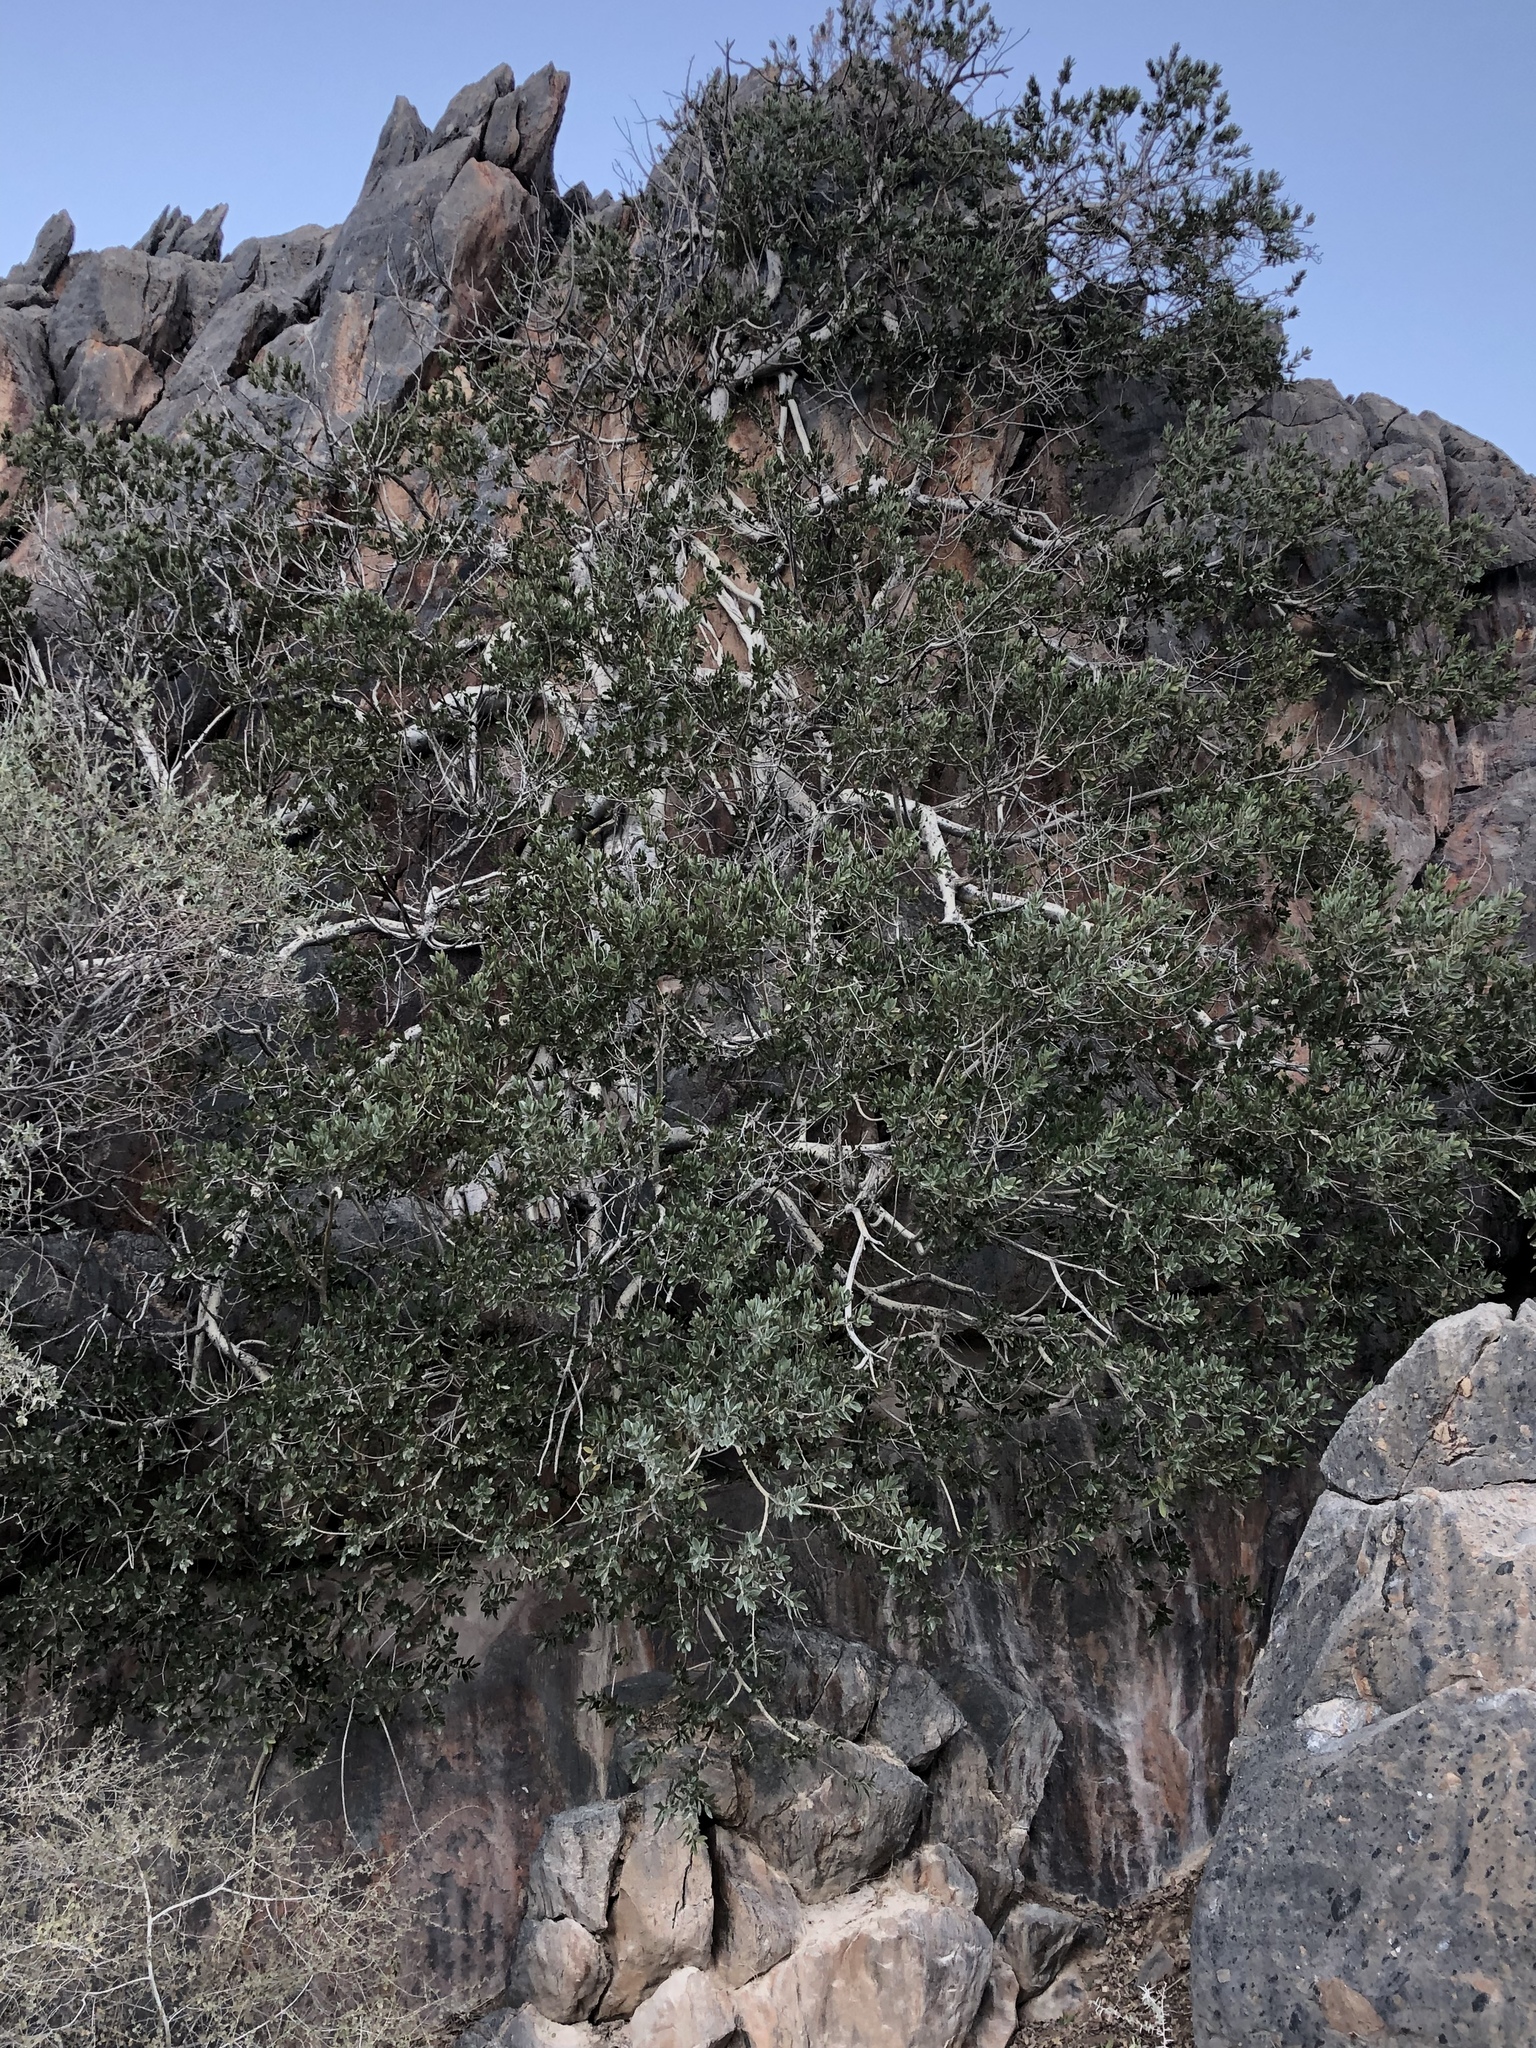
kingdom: Plantae
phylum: Tracheophyta
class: Magnoliopsida
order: Rosales
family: Moraceae
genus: Ficus
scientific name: Ficus ilicina
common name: Laurel rock fig
